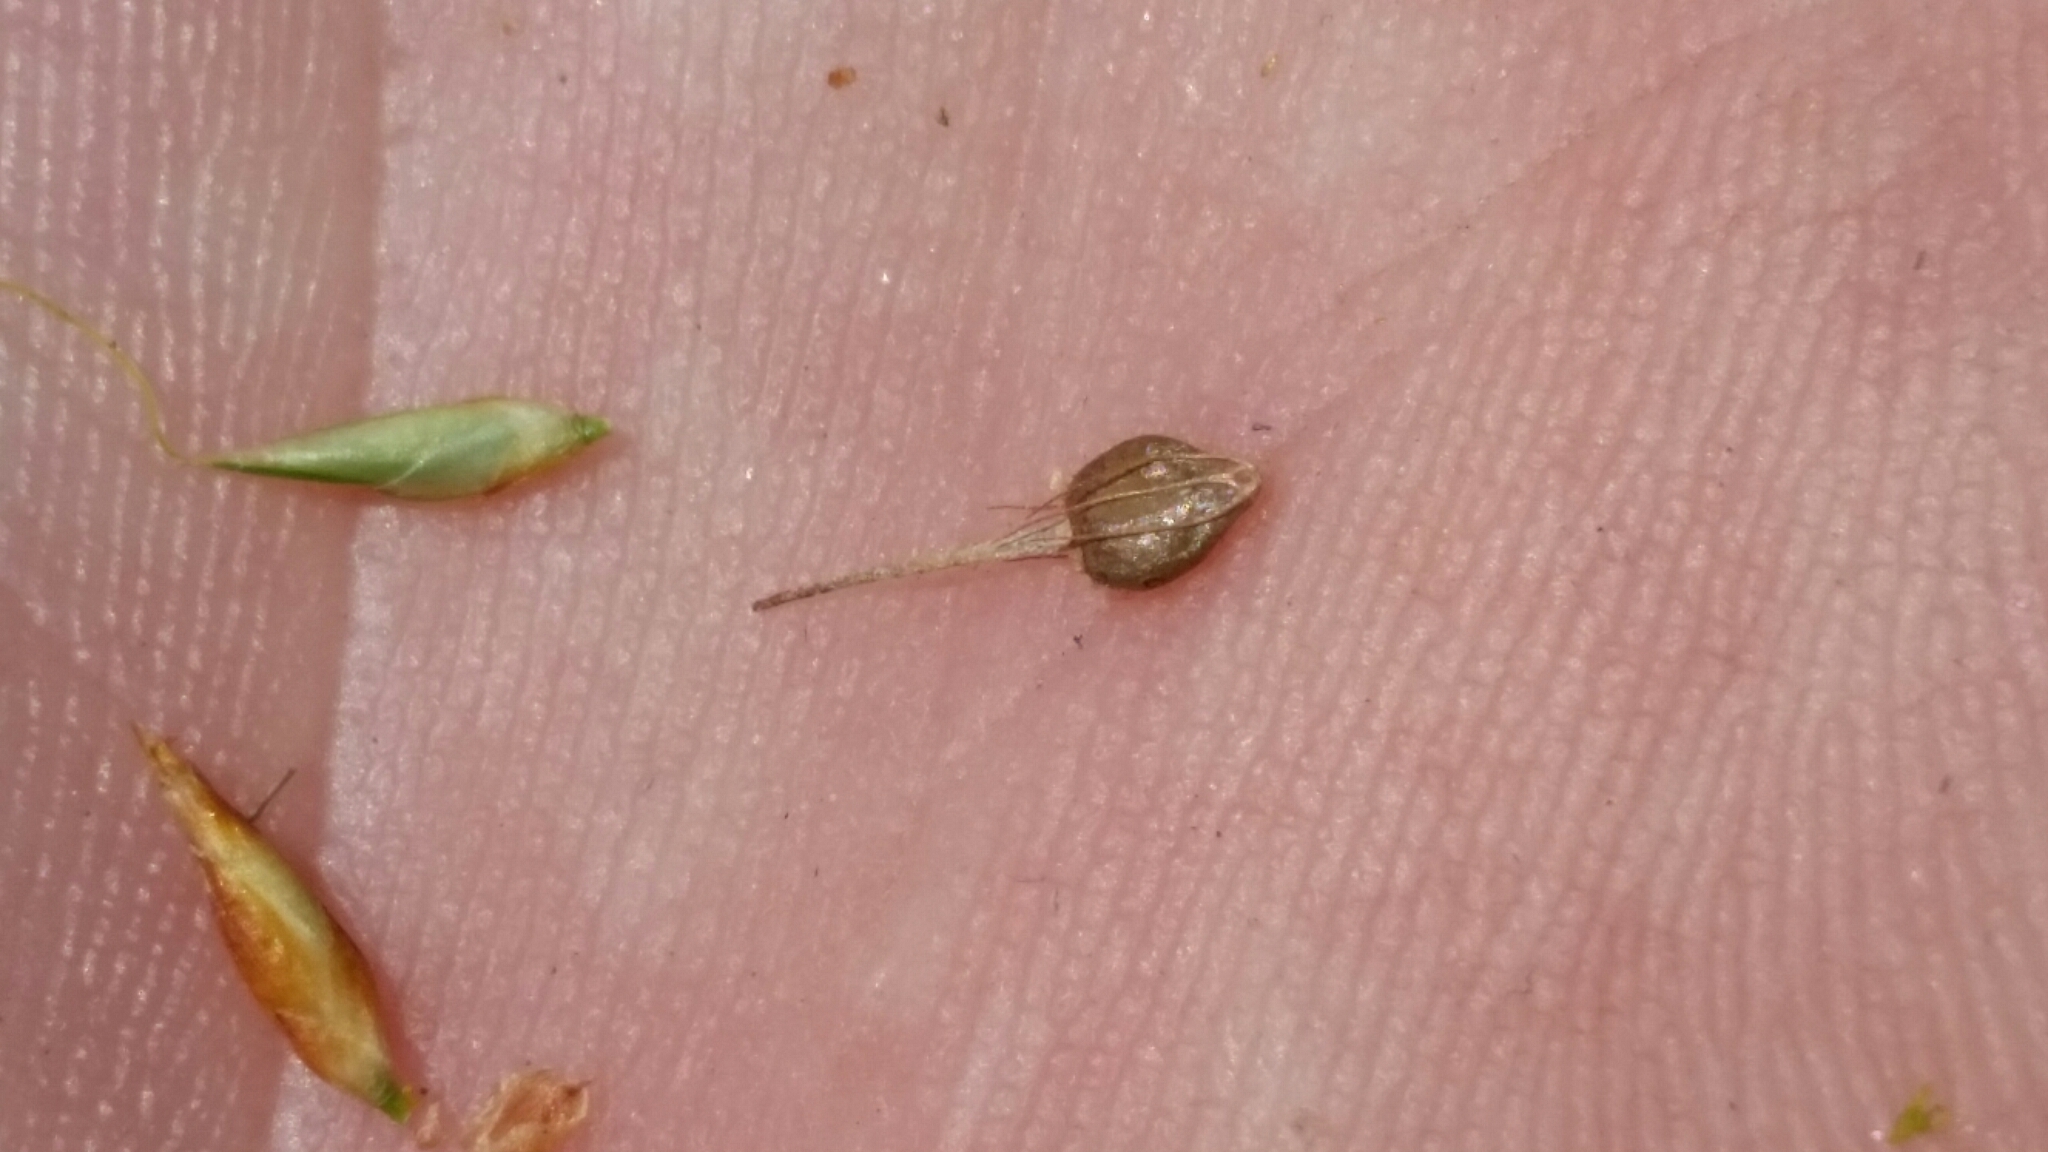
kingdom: Plantae
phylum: Tracheophyta
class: Liliopsida
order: Poales
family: Cyperaceae
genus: Rhynchospora
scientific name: Rhynchospora tracyi
